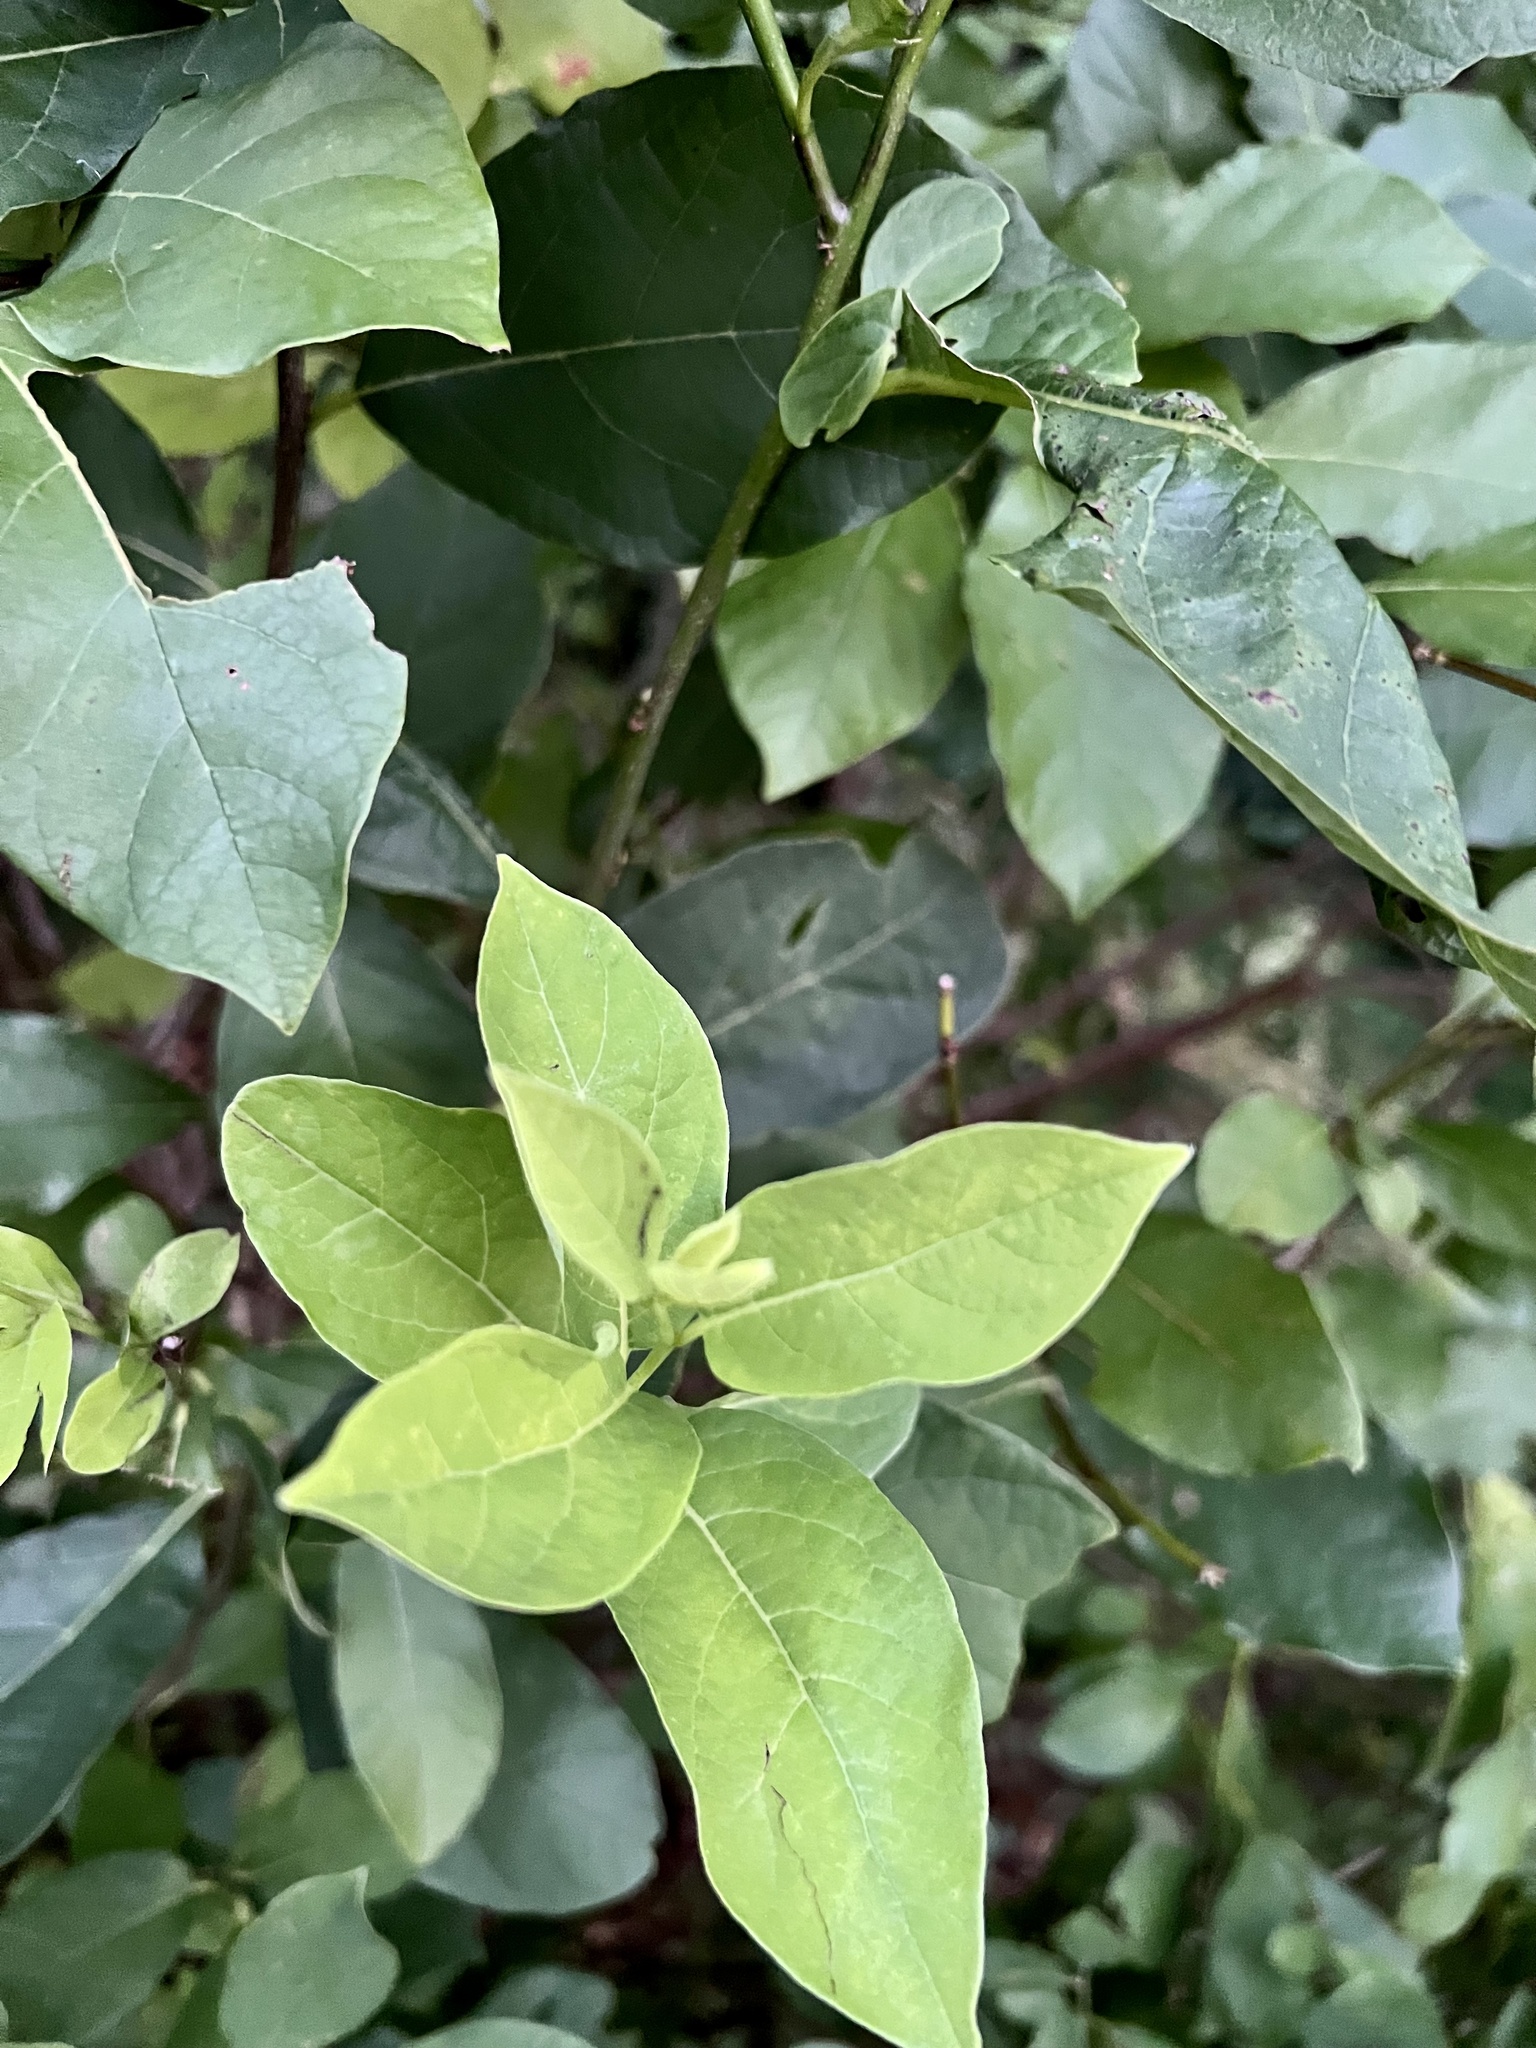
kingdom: Plantae
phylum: Tracheophyta
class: Magnoliopsida
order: Laurales
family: Lauraceae
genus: Lindera
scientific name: Lindera benzoin
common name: Spicebush
